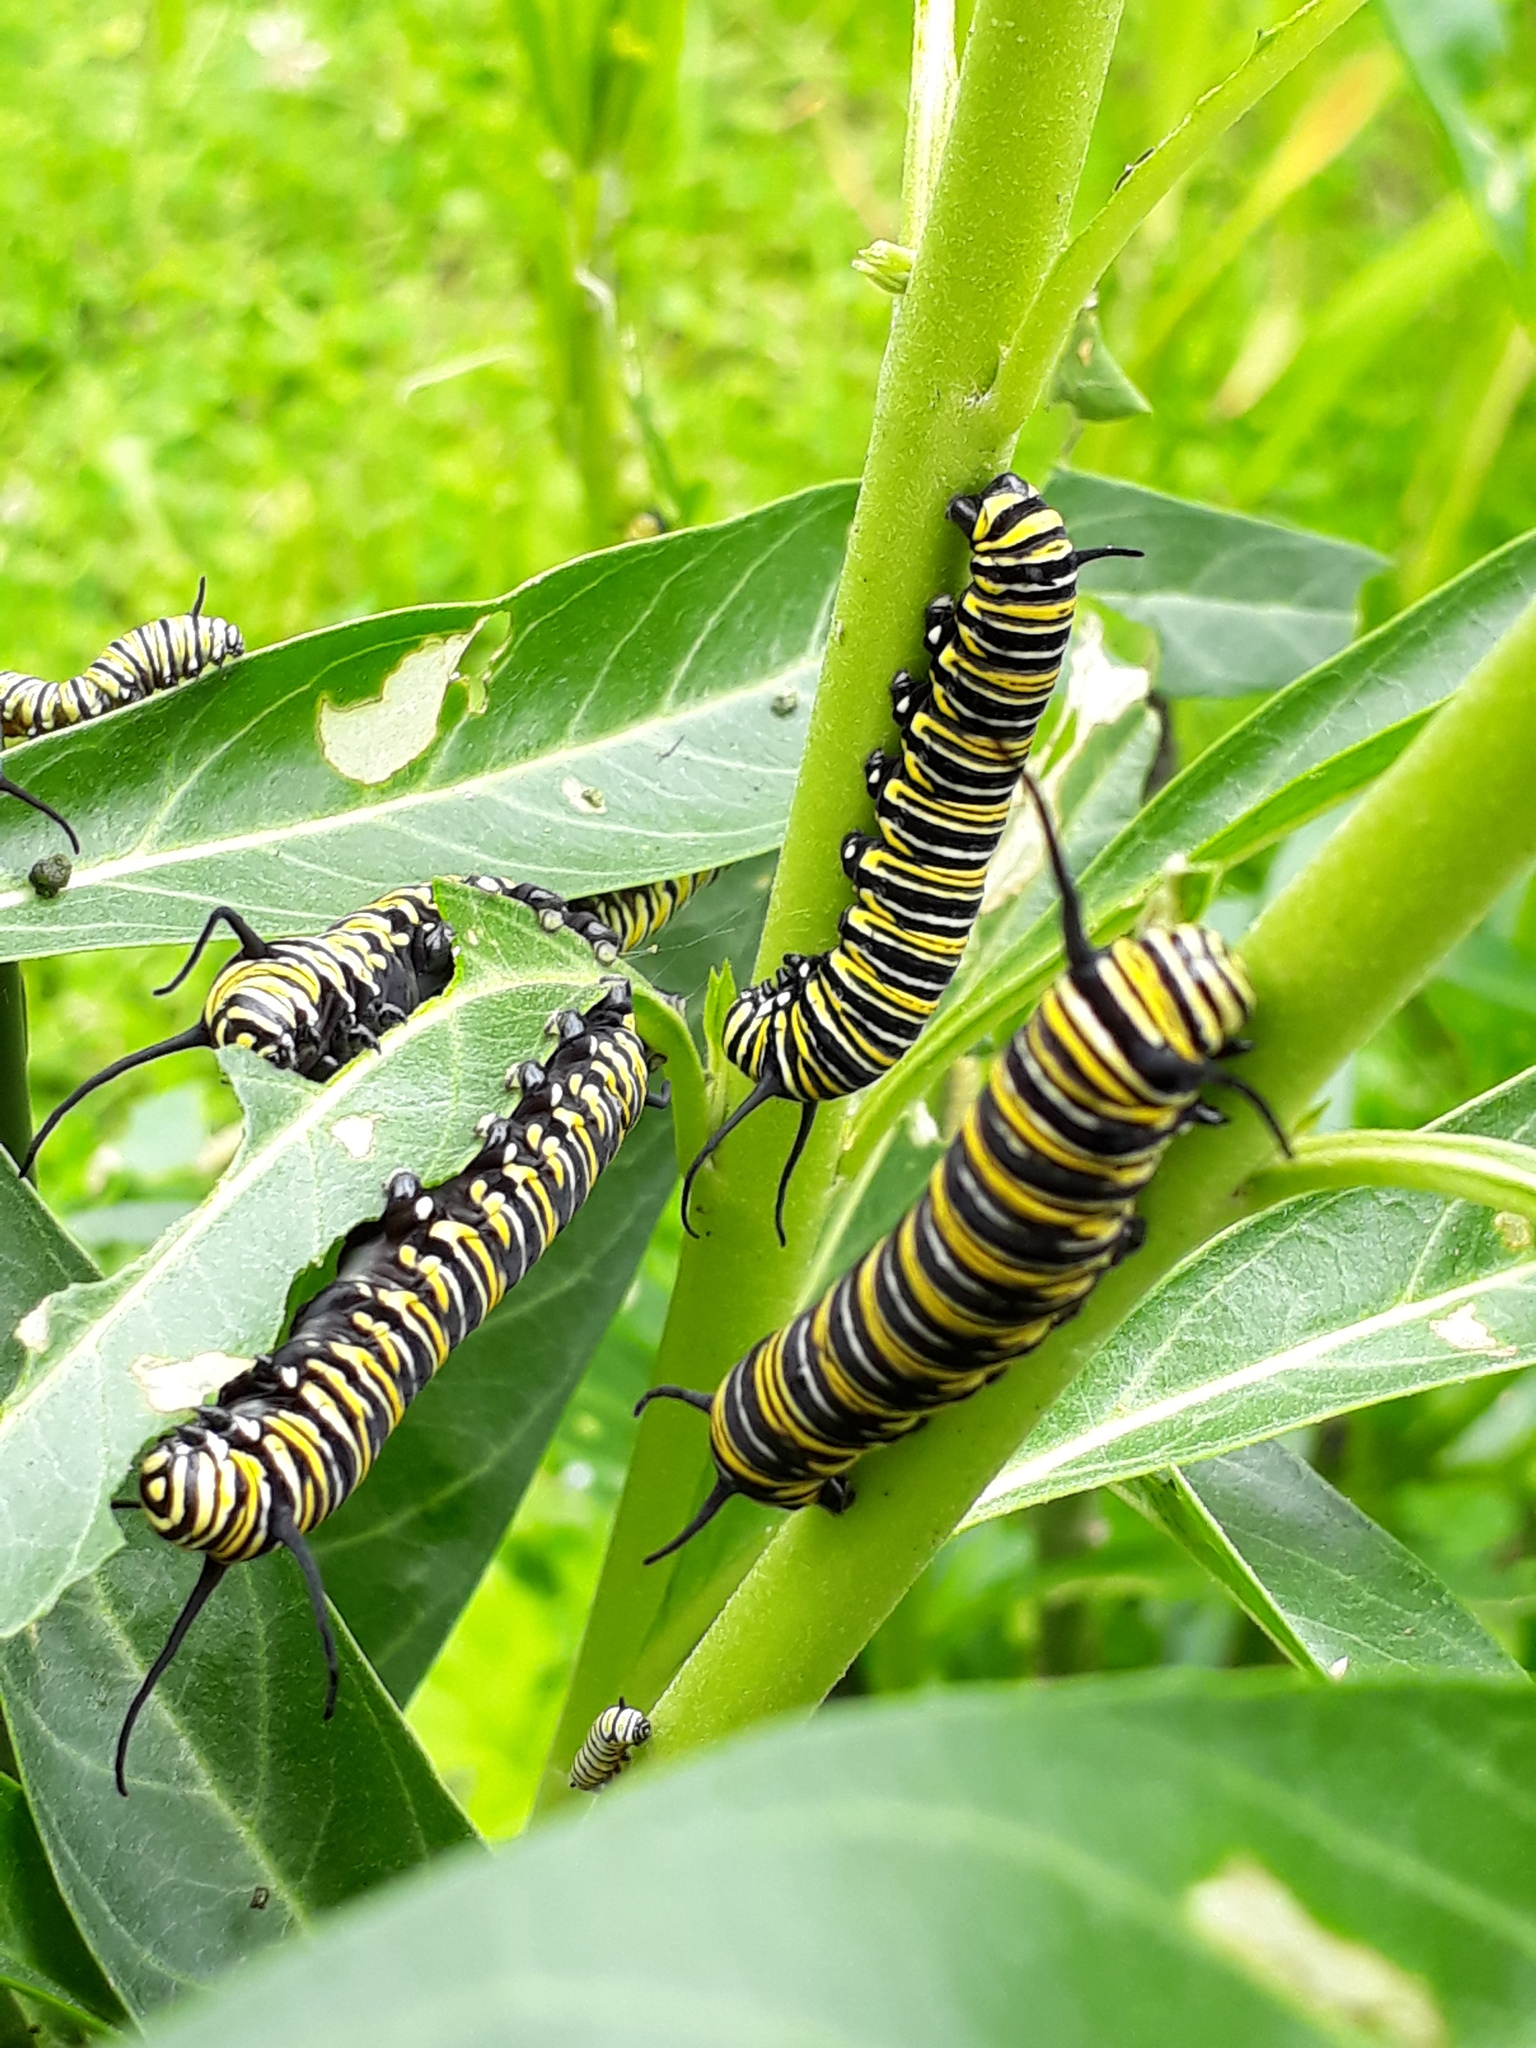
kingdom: Animalia
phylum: Arthropoda
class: Insecta
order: Lepidoptera
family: Nymphalidae
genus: Danaus
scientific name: Danaus plexippus
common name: Monarch
